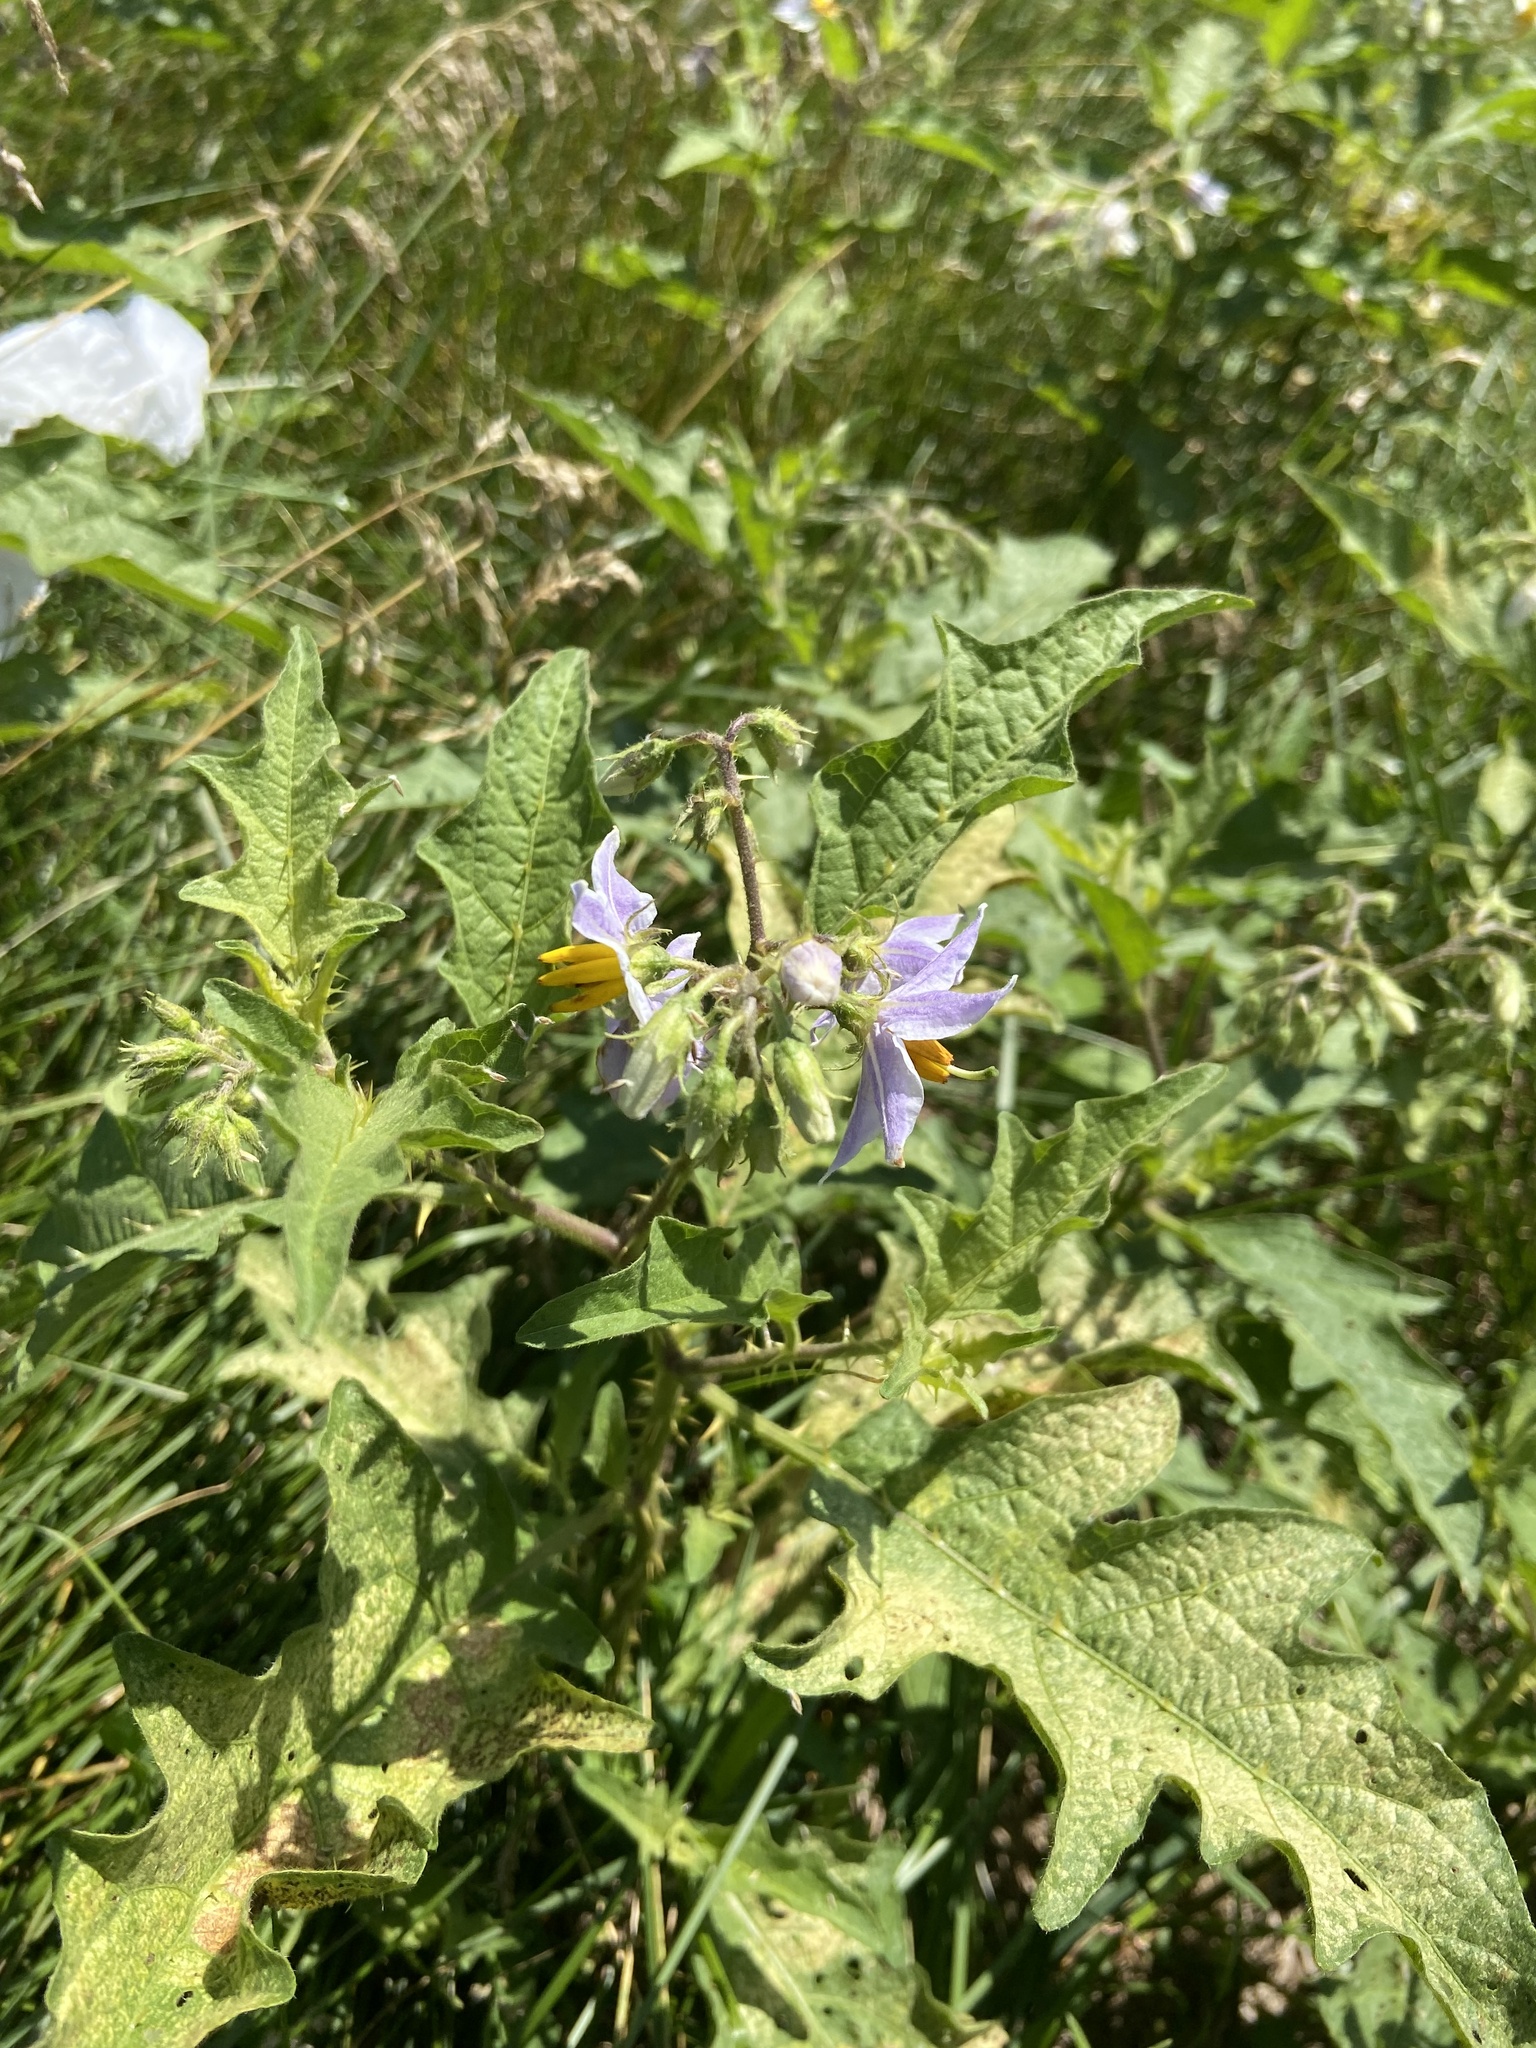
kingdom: Plantae
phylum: Tracheophyta
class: Magnoliopsida
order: Solanales
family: Solanaceae
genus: Solanum
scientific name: Solanum carolinense
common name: Horse-nettle
